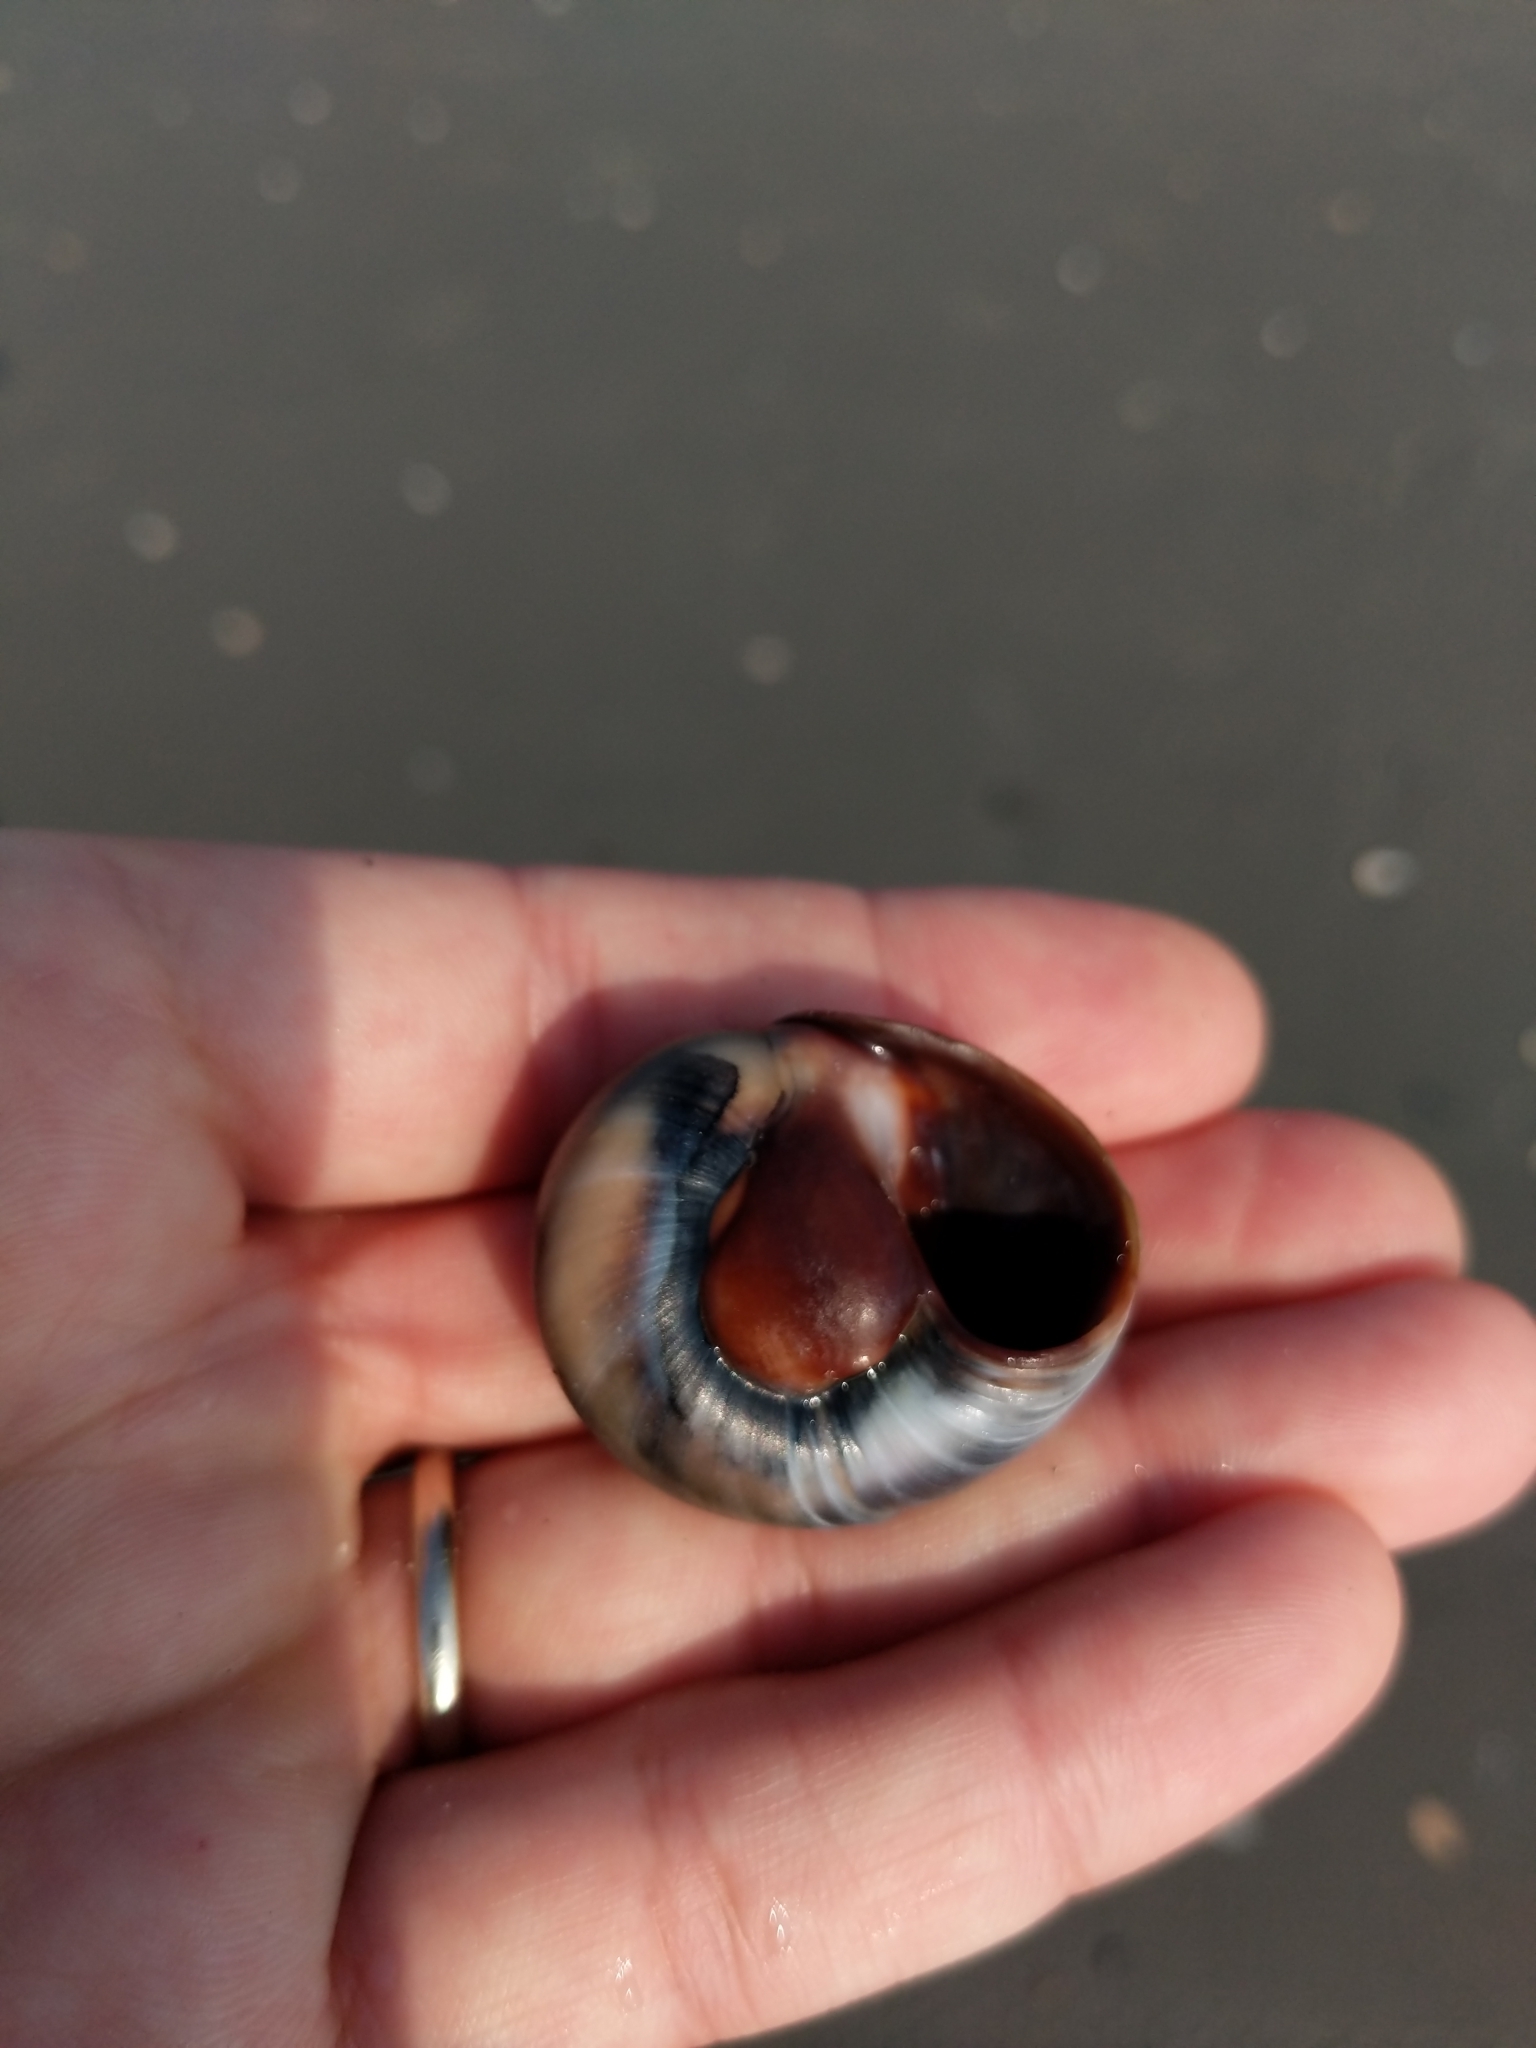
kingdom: Animalia
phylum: Mollusca
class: Gastropoda
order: Littorinimorpha
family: Naticidae
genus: Neverita
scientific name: Neverita duplicata
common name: Lobed moonsnail
